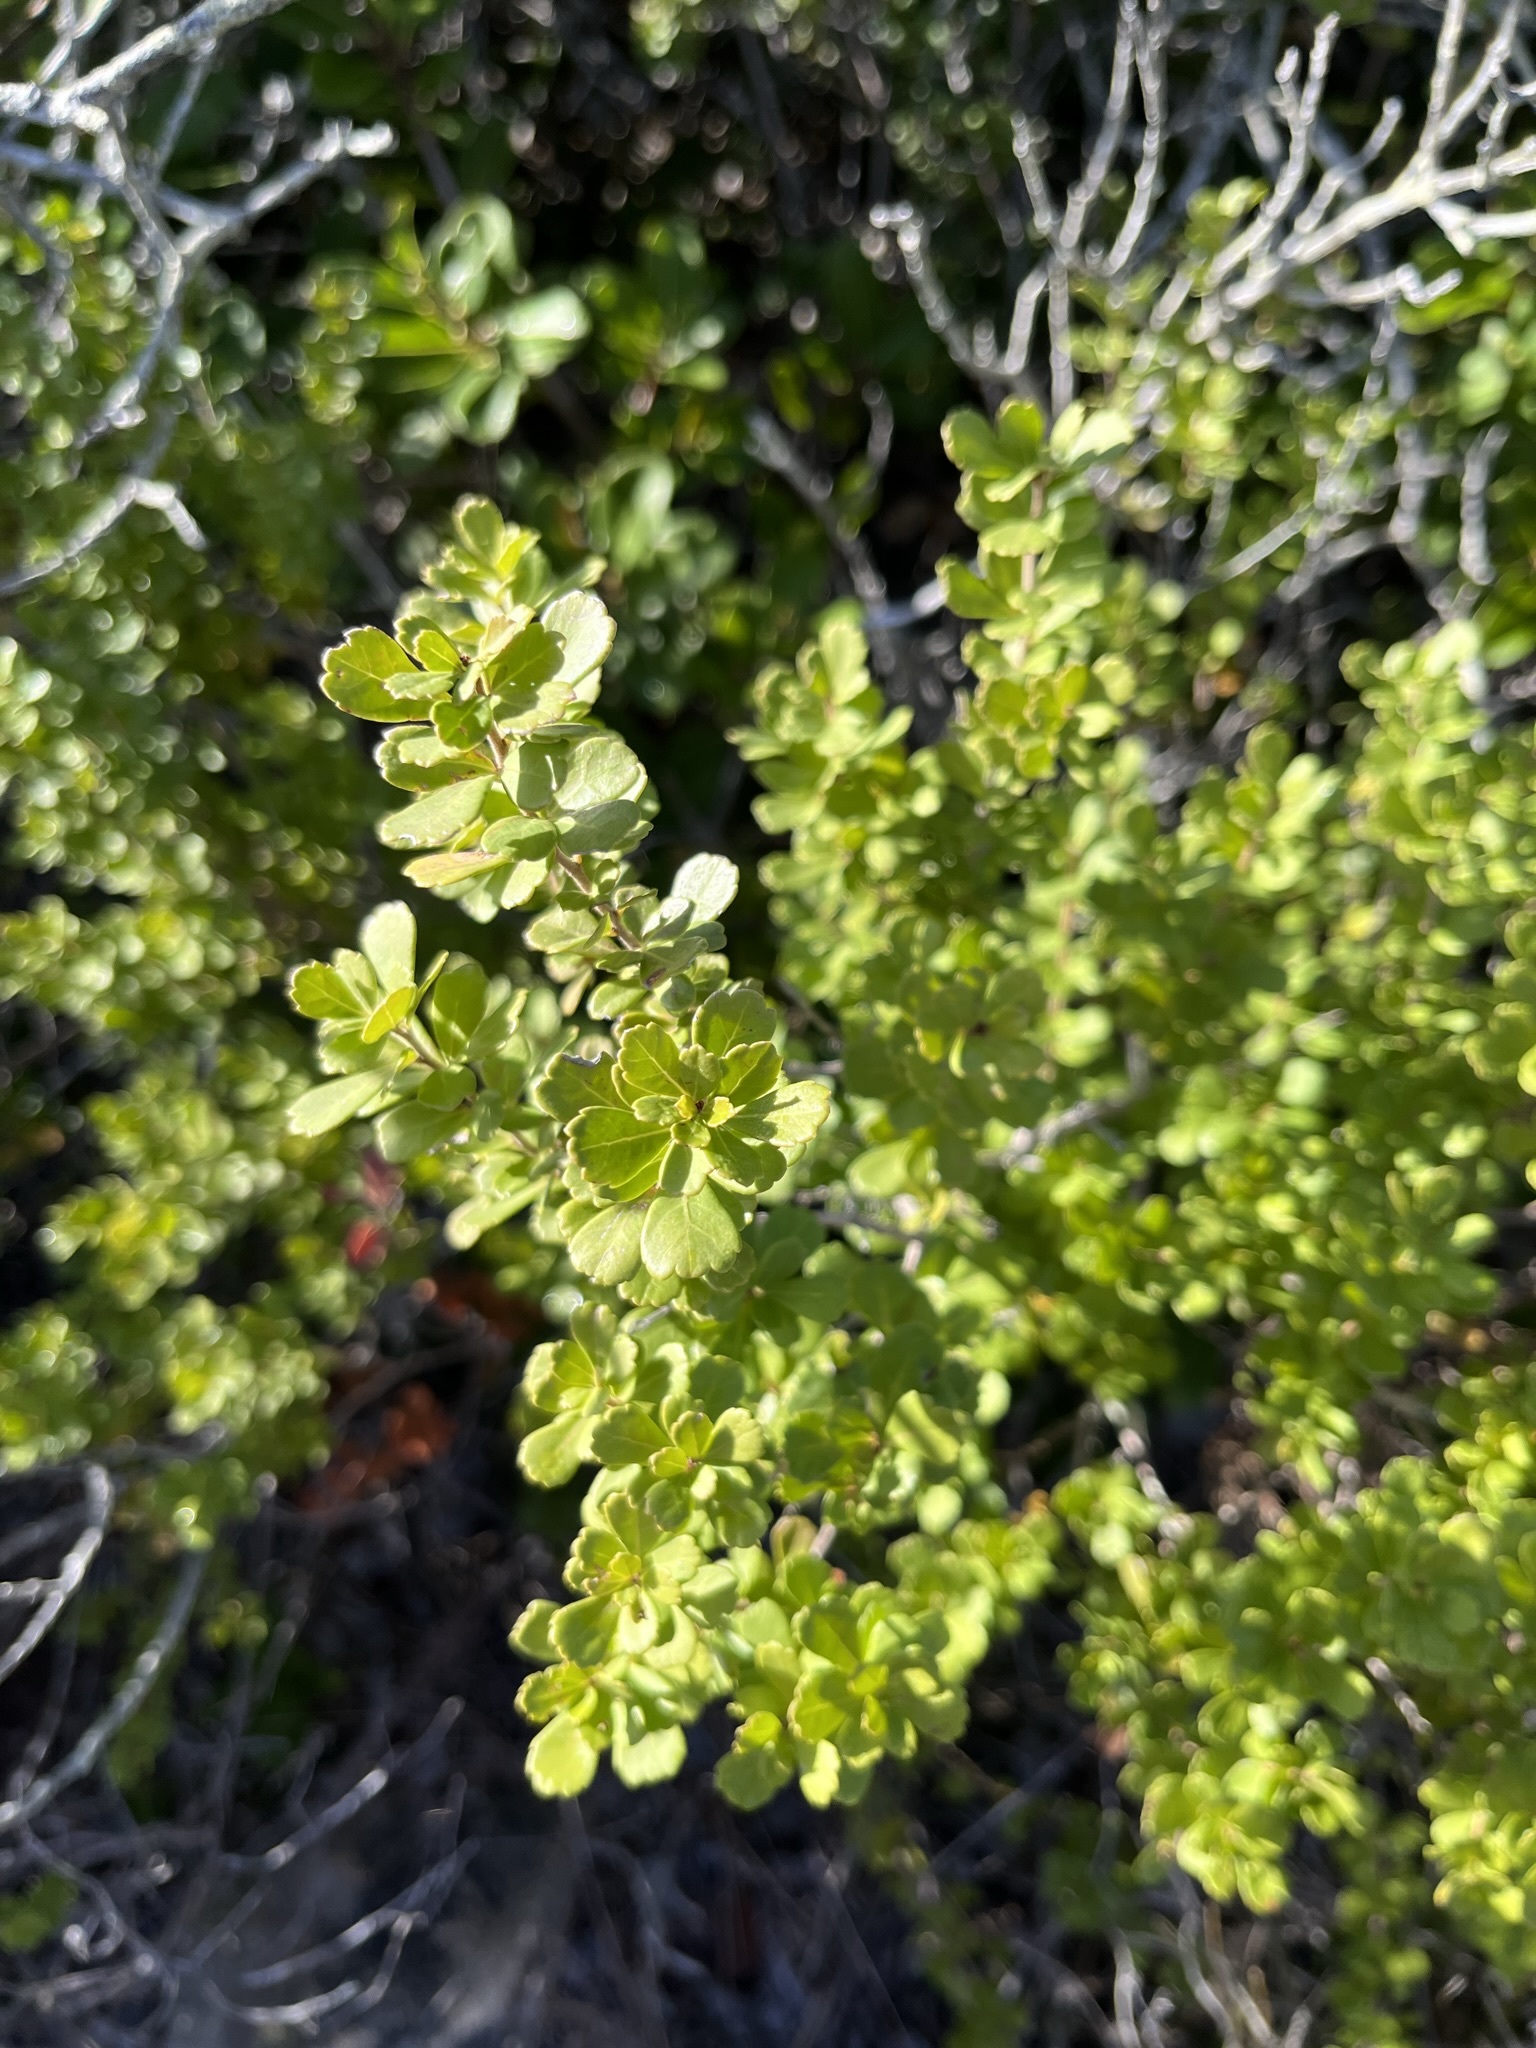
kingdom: Plantae
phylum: Tracheophyta
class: Magnoliopsida
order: Sapindales
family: Anacardiaceae
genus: Searsia
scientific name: Searsia crenata
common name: Crowberry
